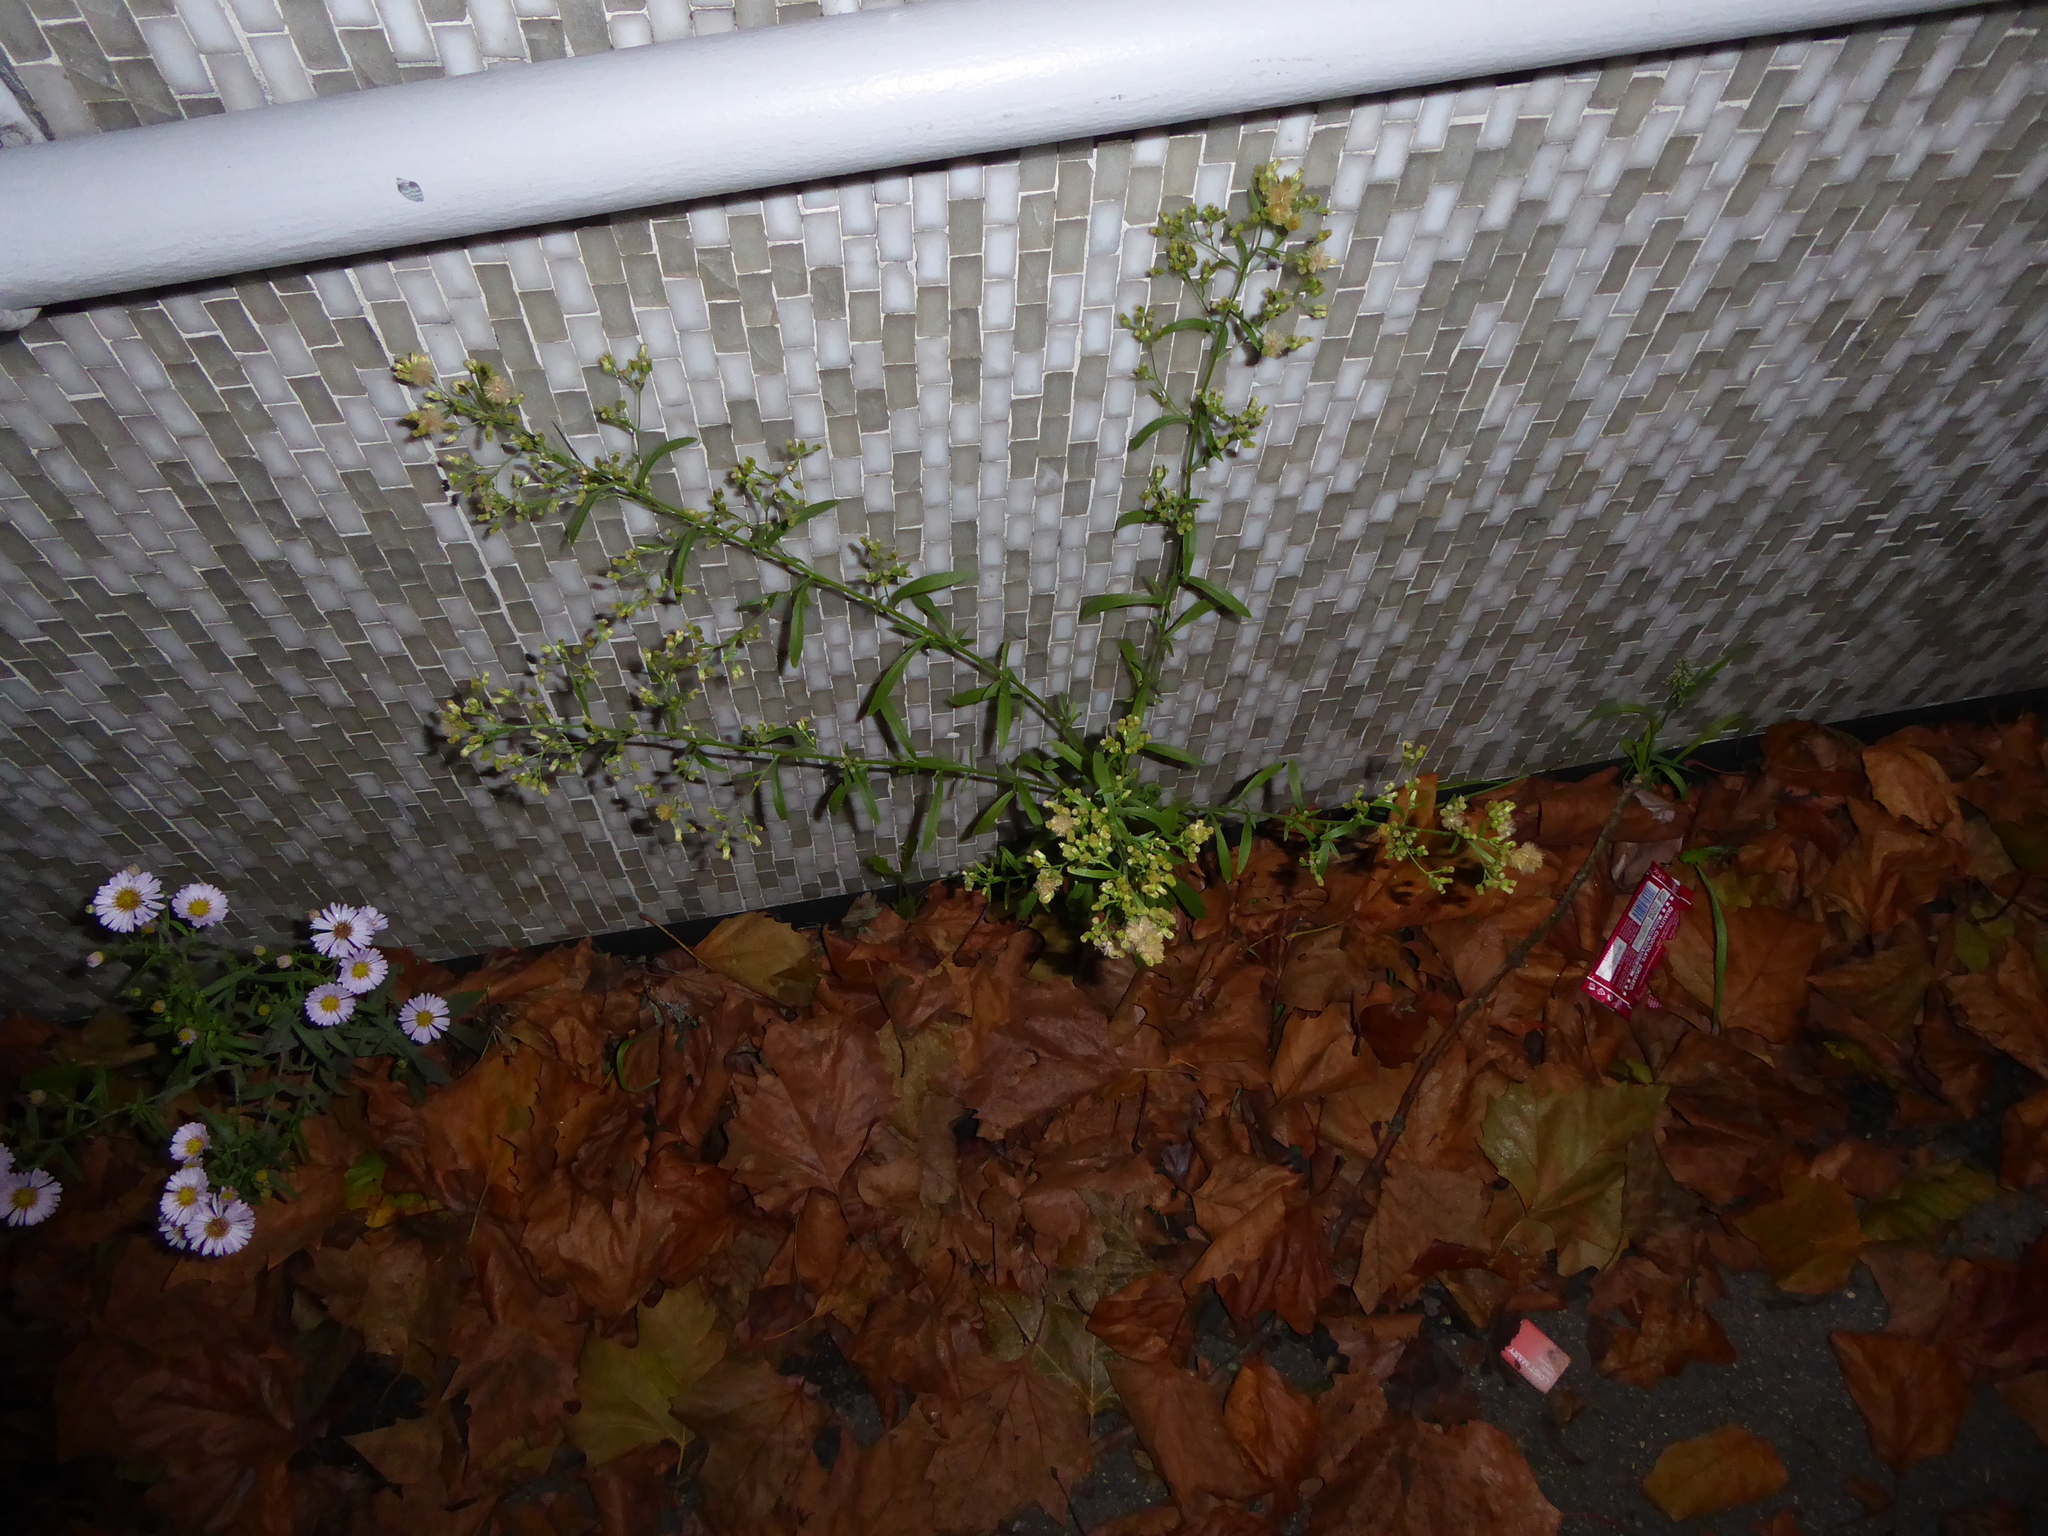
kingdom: Plantae
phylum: Tracheophyta
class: Magnoliopsida
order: Asterales
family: Asteraceae
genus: Erigeron
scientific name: Erigeron sumatrensis
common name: Daisy
